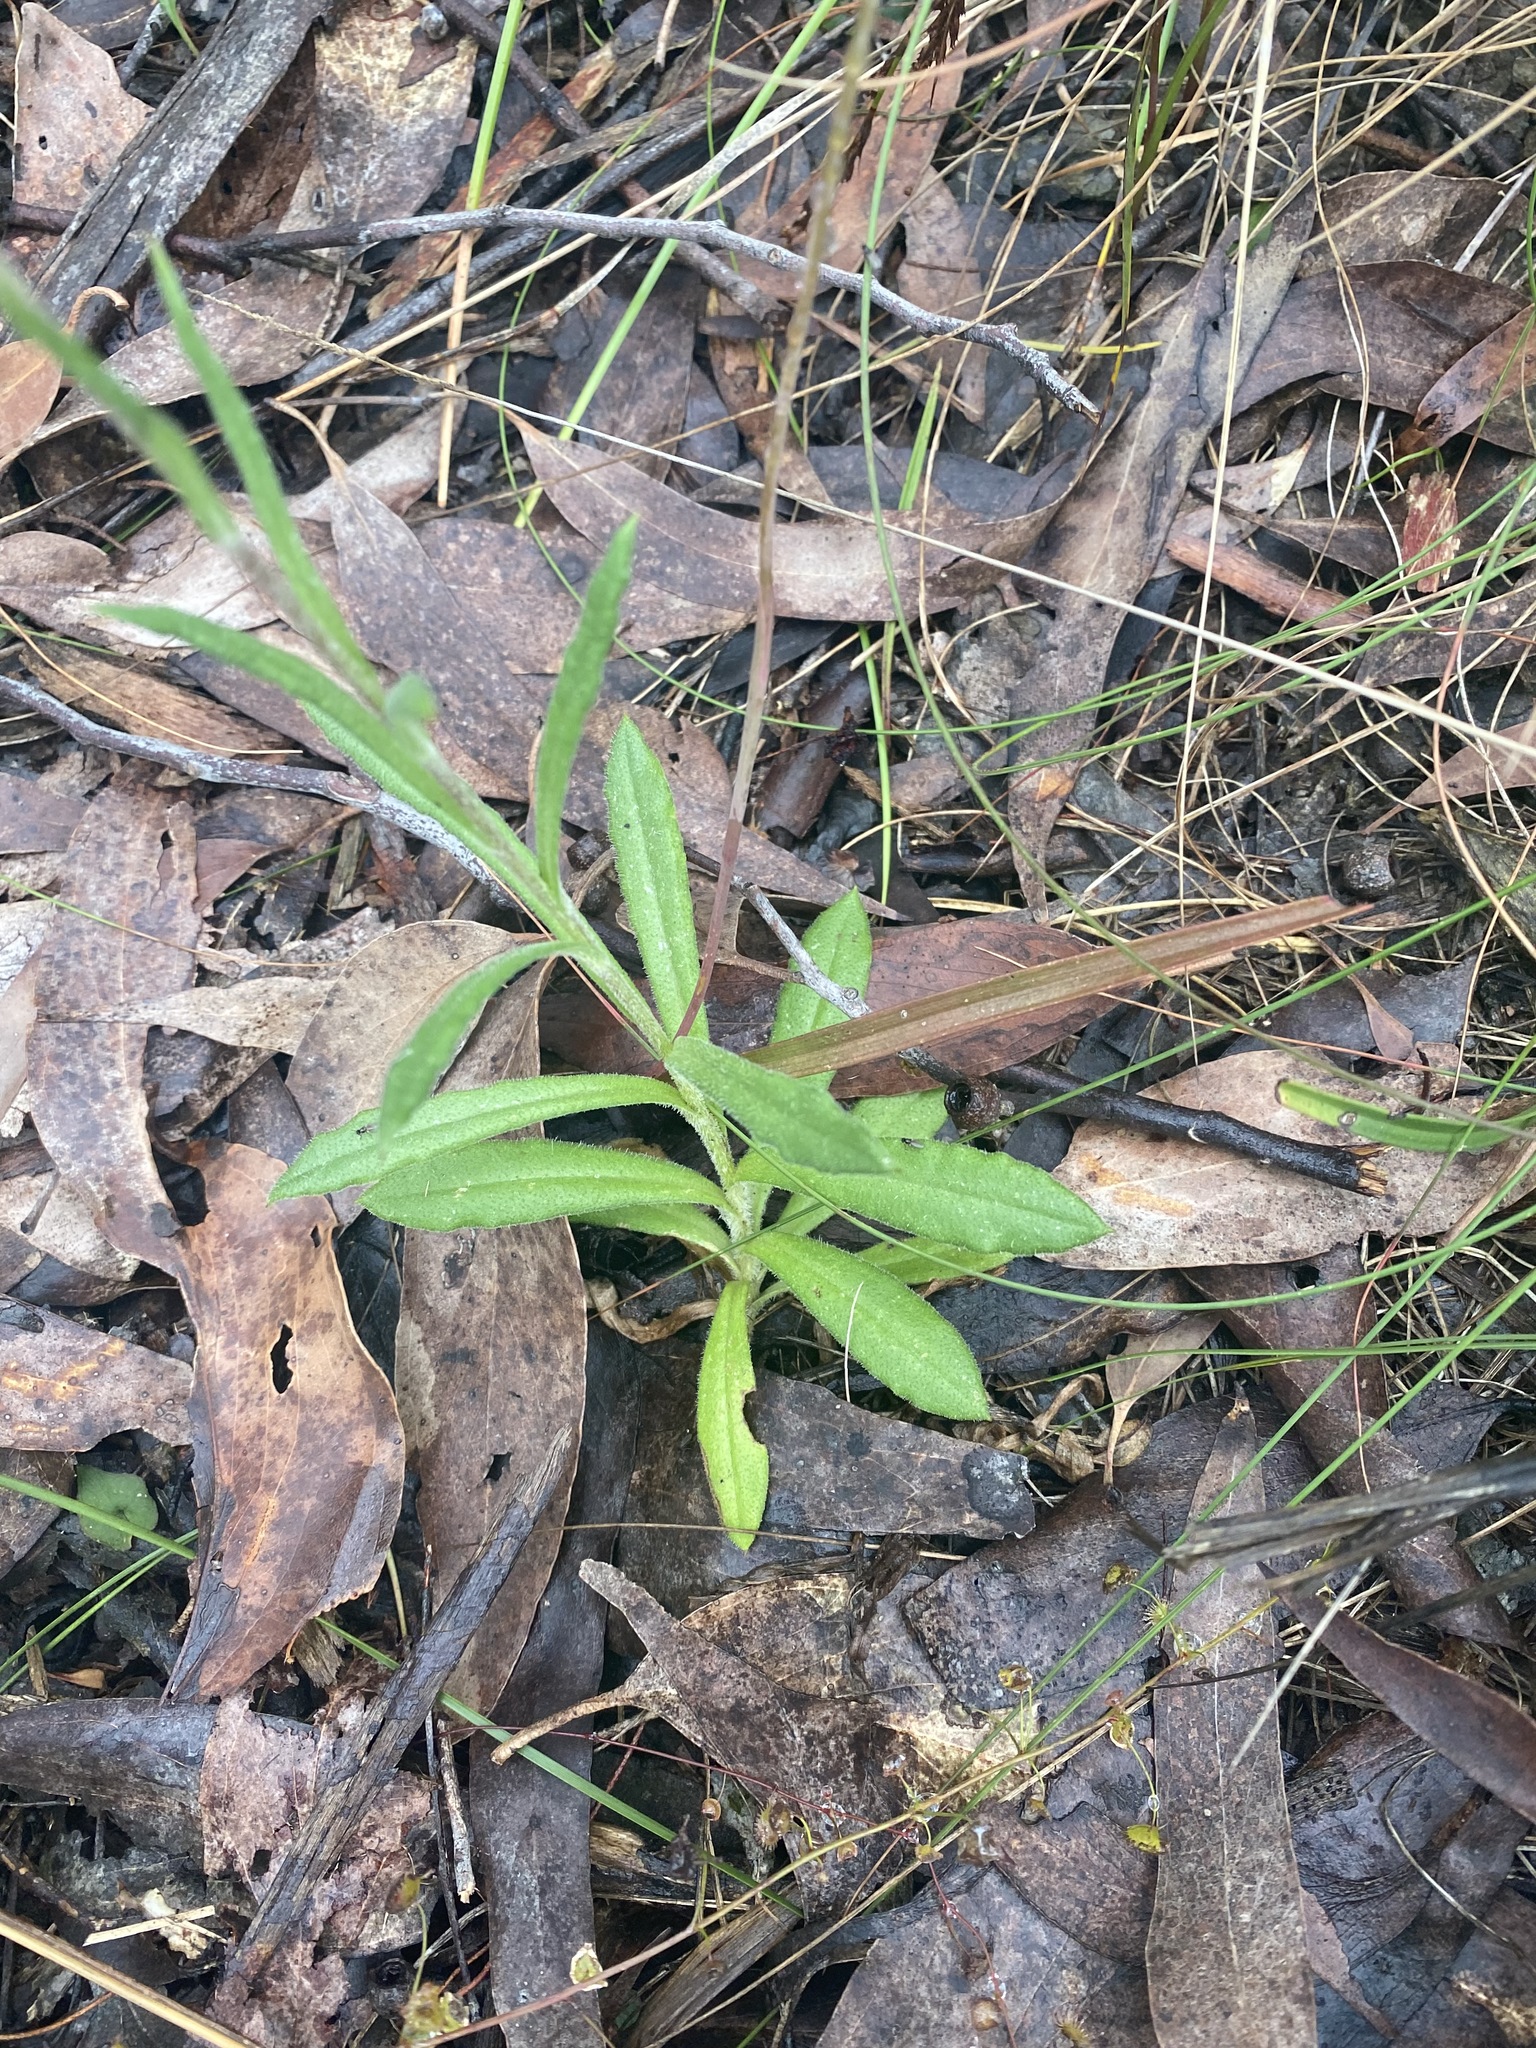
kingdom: Plantae
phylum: Tracheophyta
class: Magnoliopsida
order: Asterales
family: Asteraceae
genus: Coronidium
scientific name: Coronidium scorpioides
